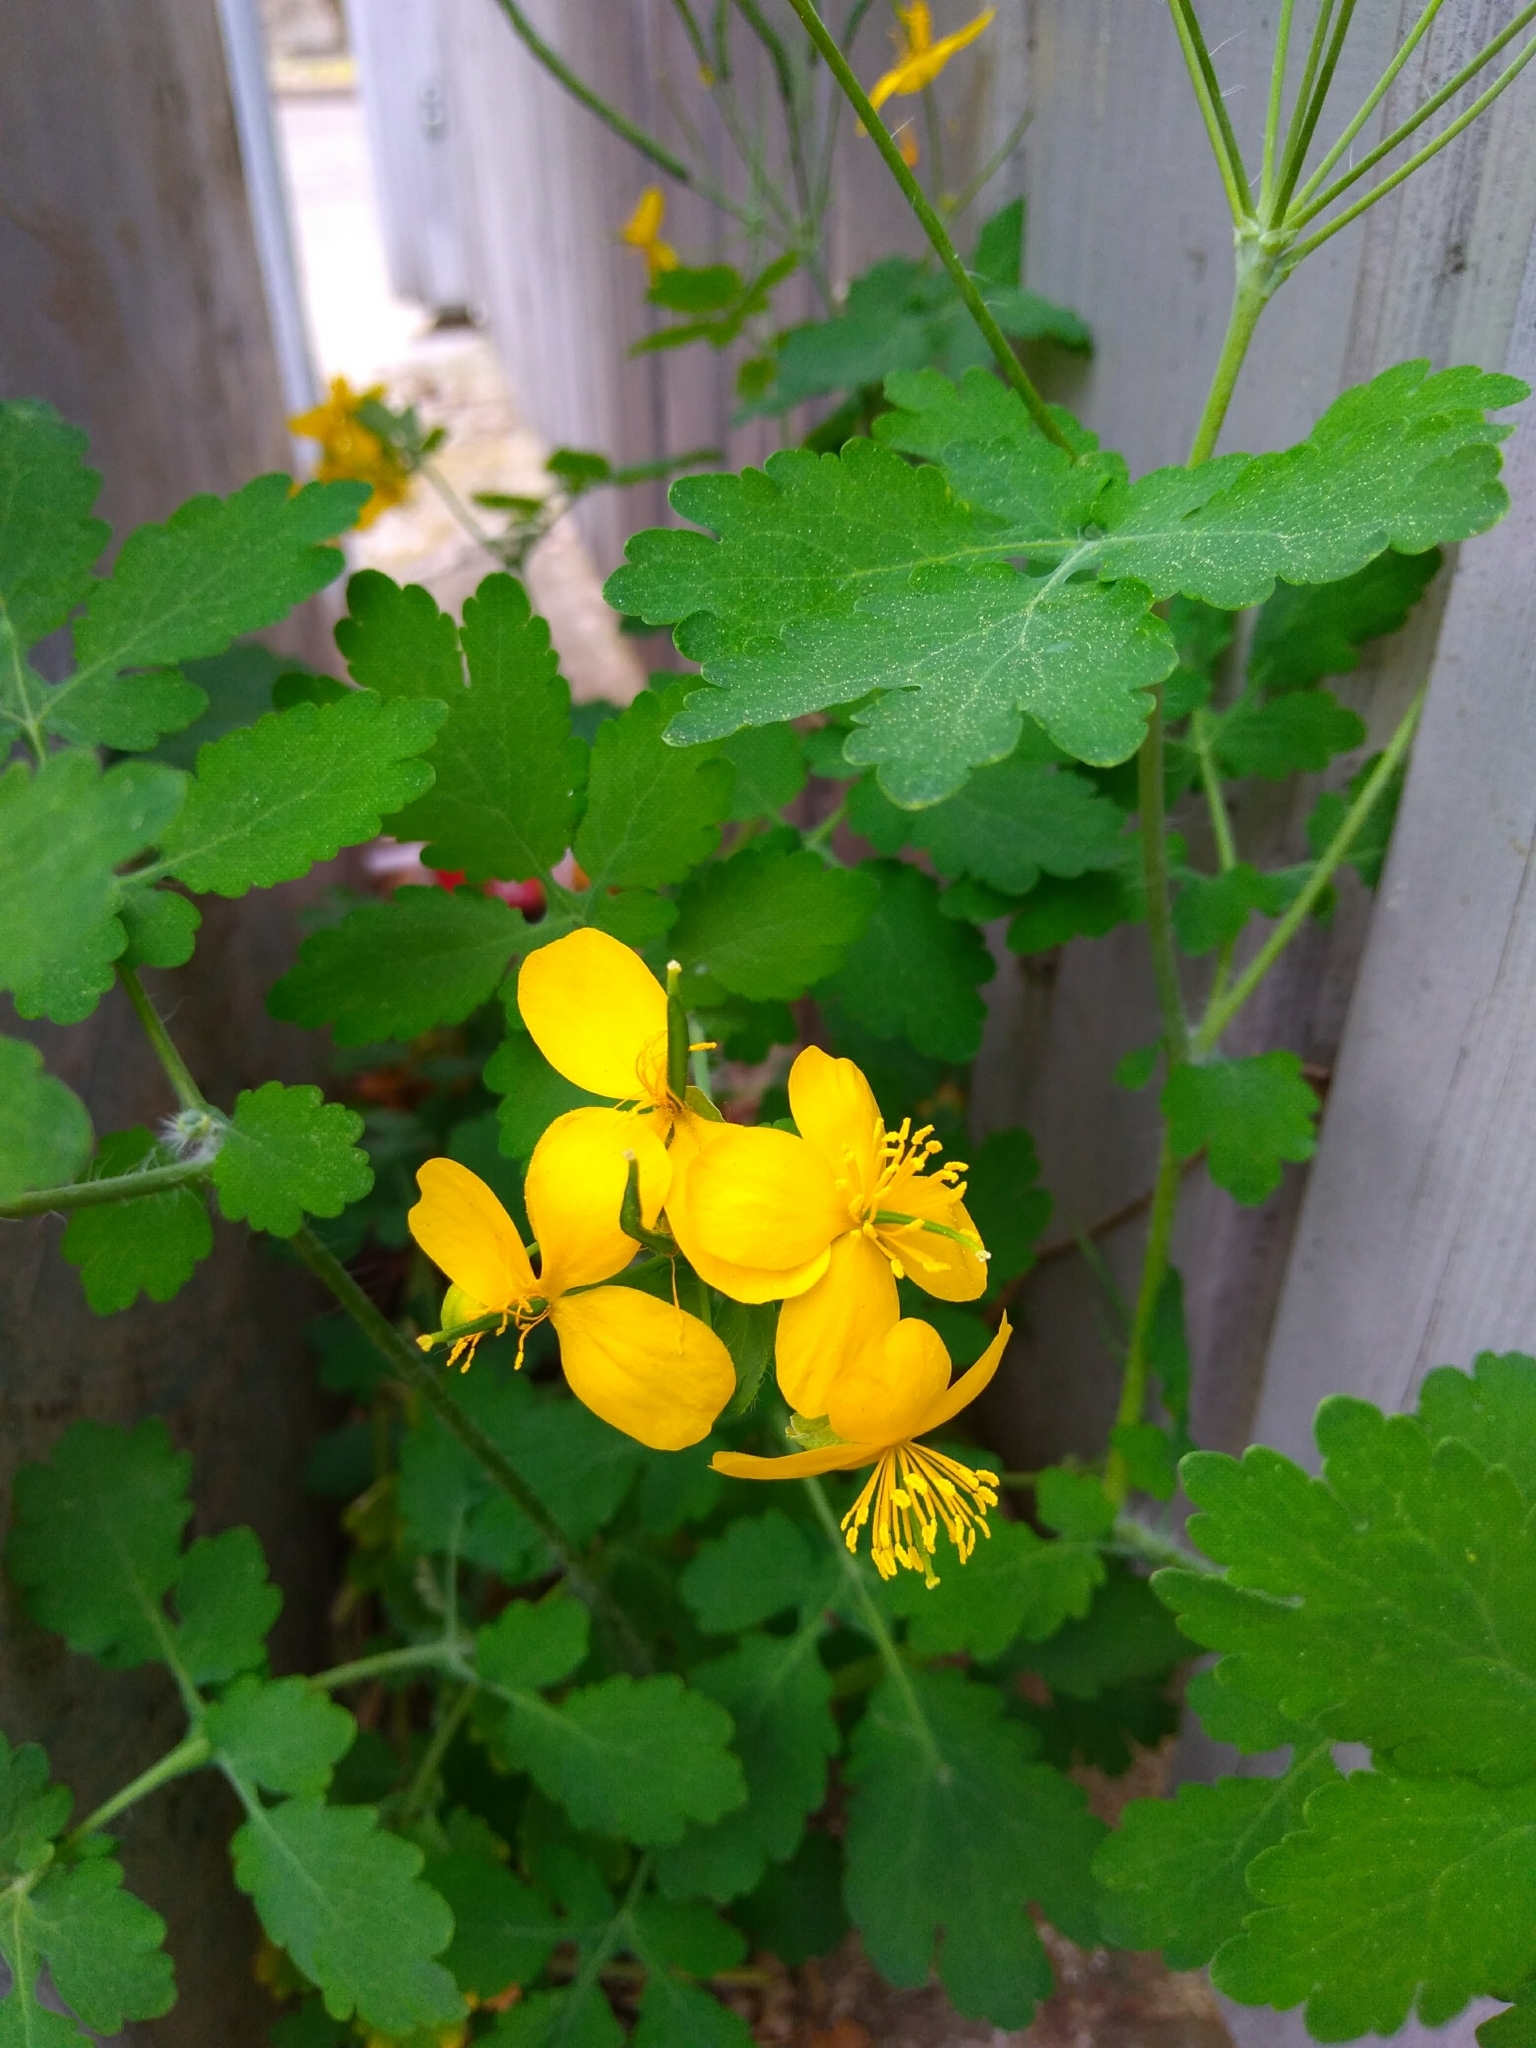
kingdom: Plantae
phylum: Tracheophyta
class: Magnoliopsida
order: Ranunculales
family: Papaveraceae
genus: Chelidonium
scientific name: Chelidonium majus
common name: Greater celandine
